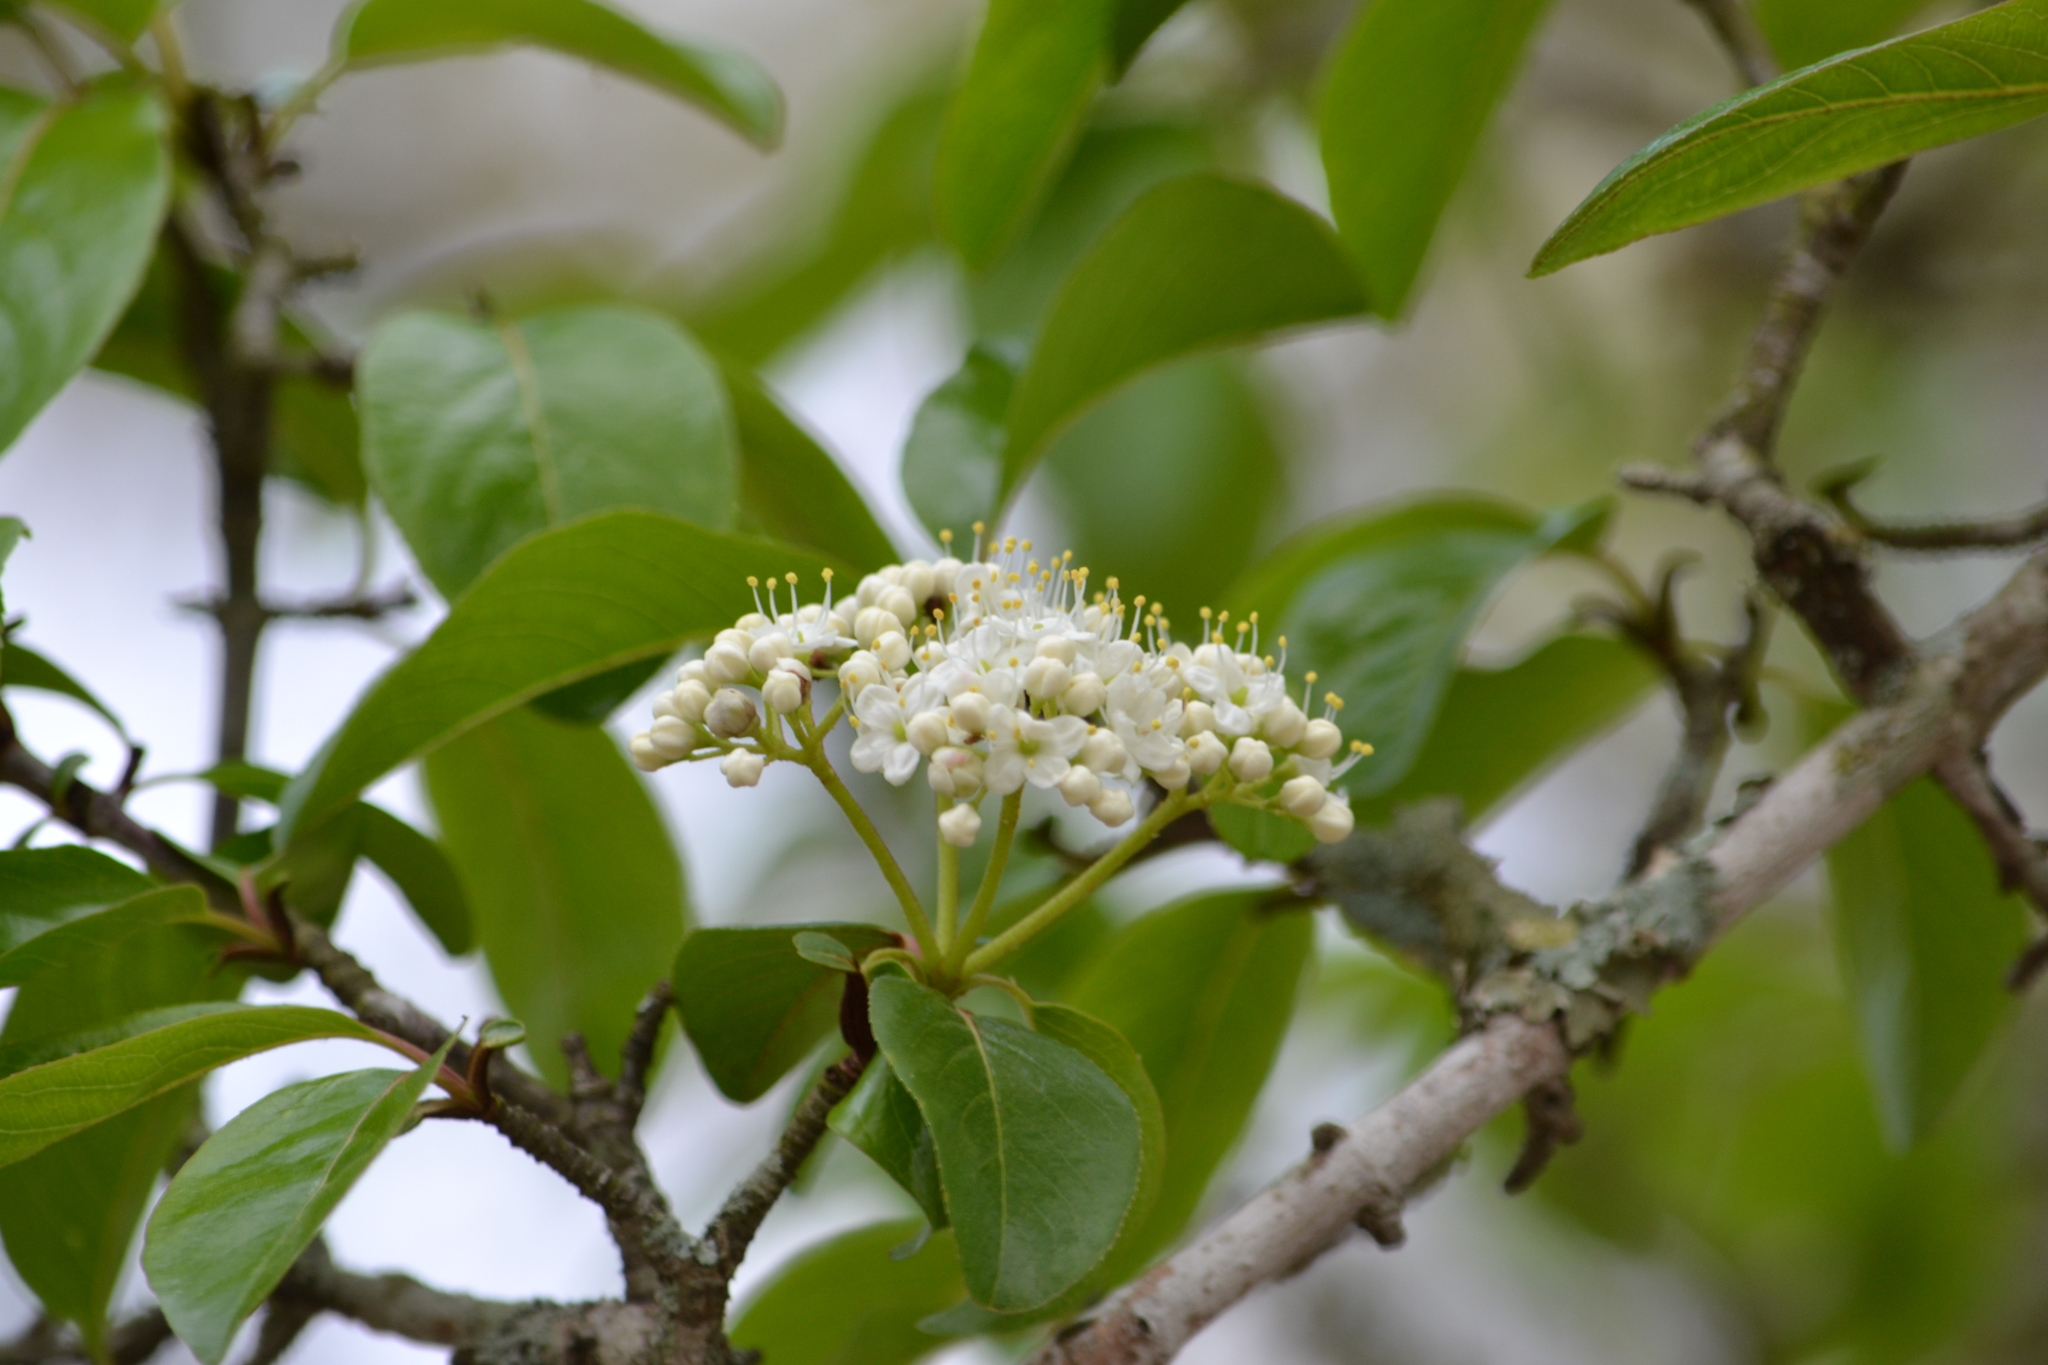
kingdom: Plantae
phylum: Tracheophyta
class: Magnoliopsida
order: Dipsacales
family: Viburnaceae
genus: Viburnum
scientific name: Viburnum rufidulum
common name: Blue haw
